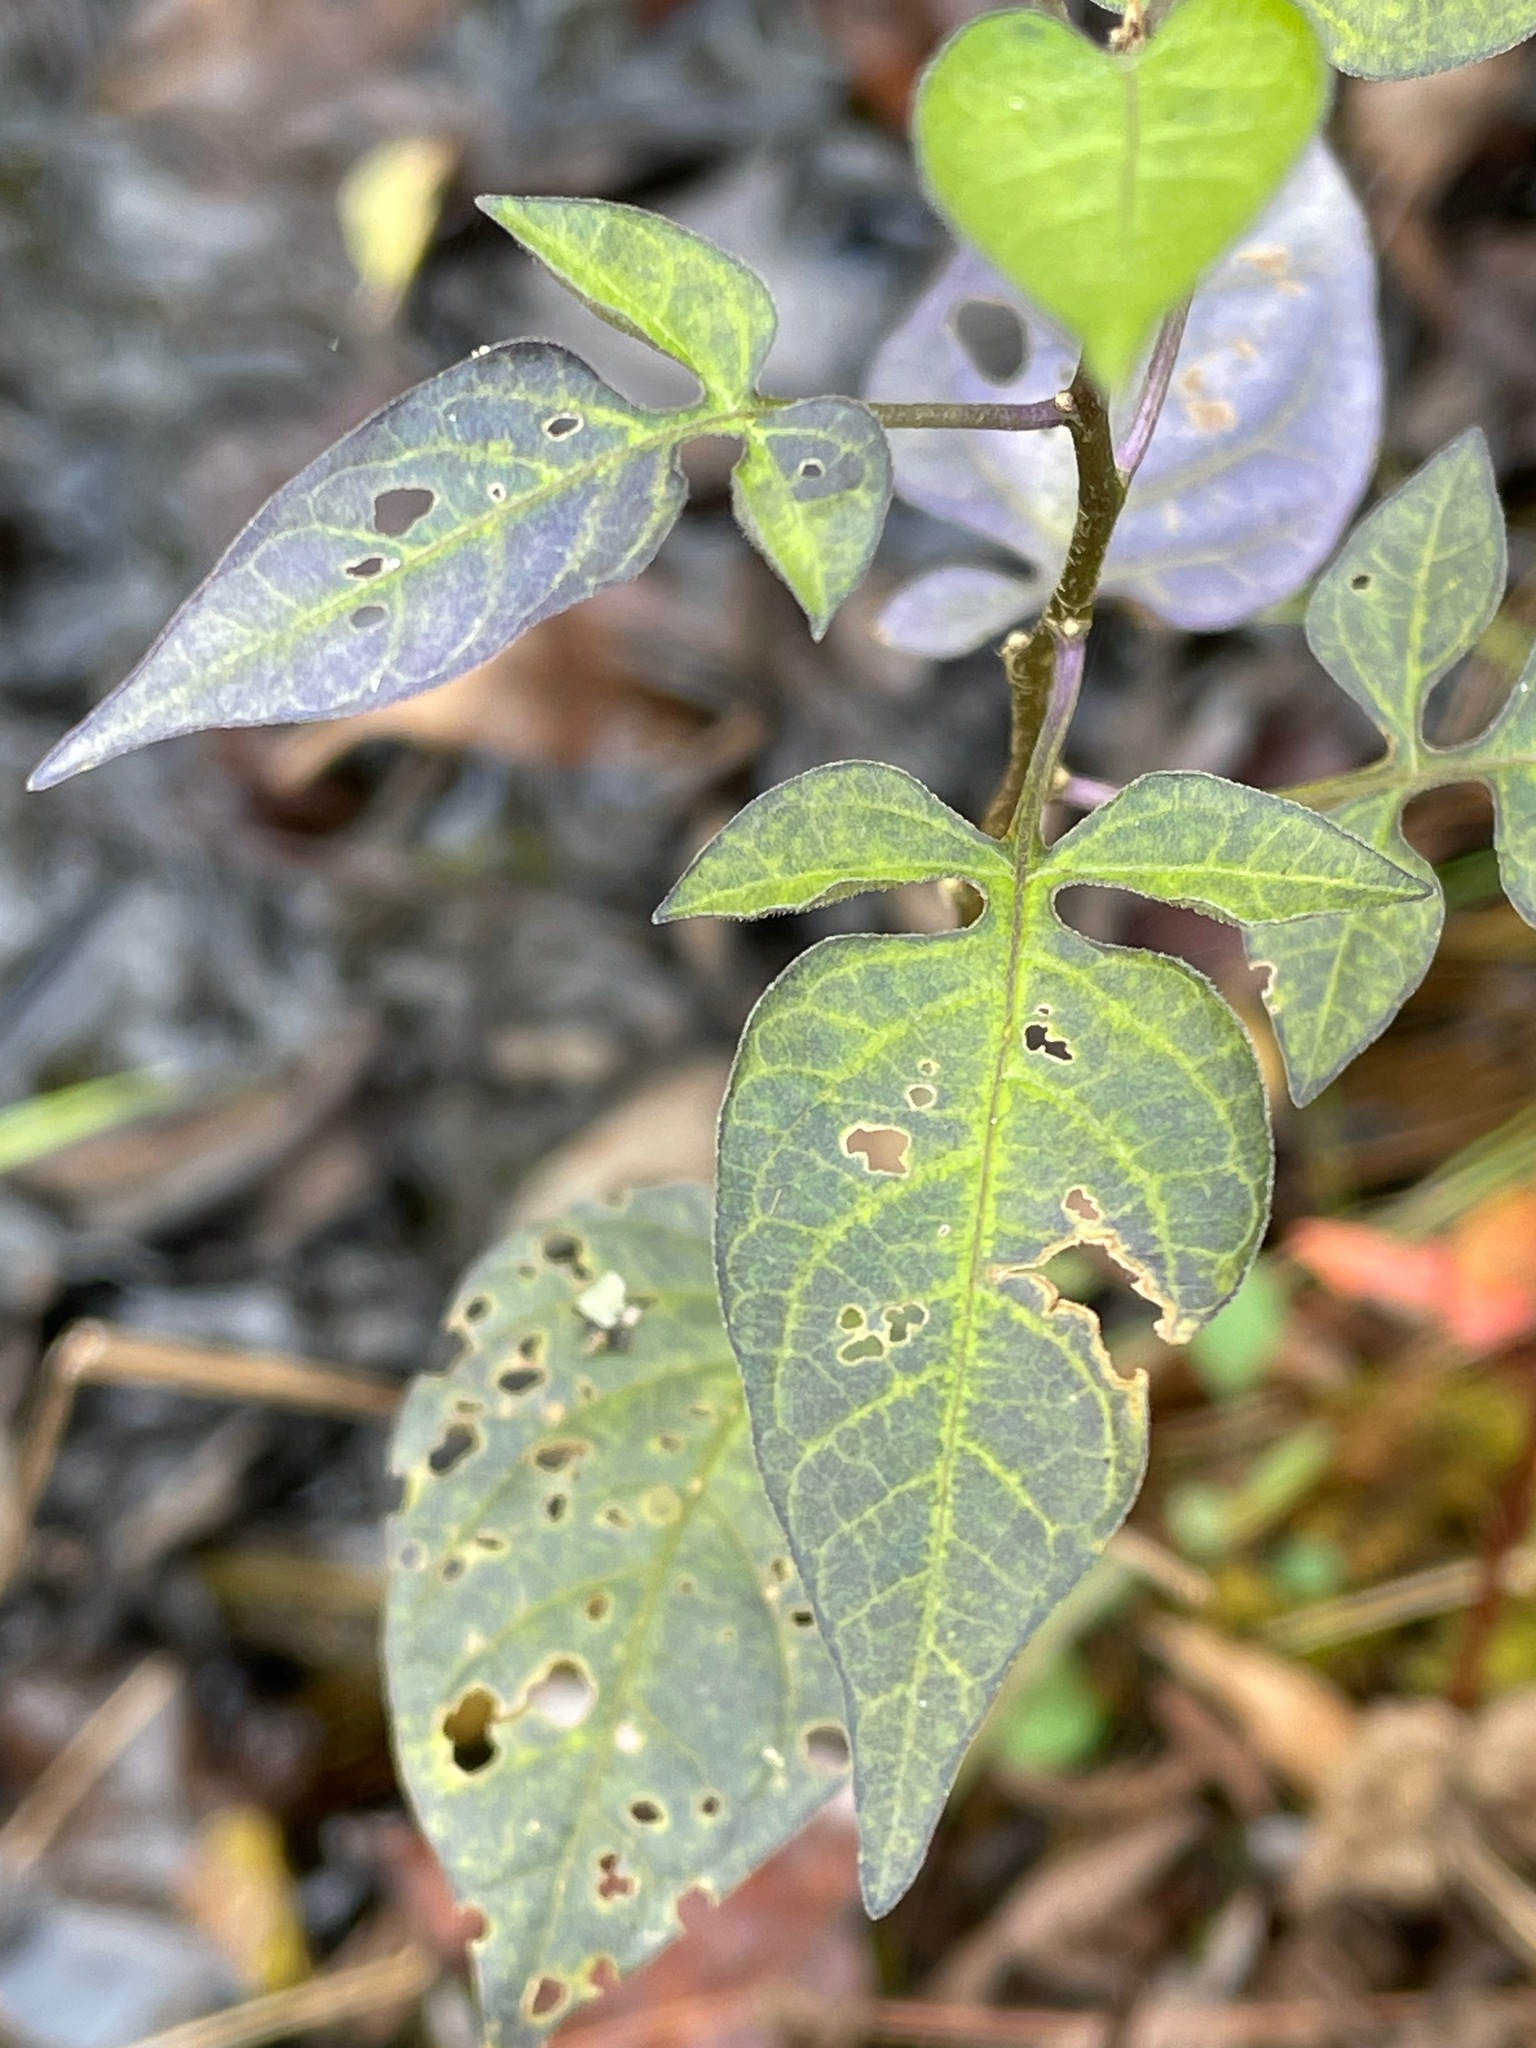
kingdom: Plantae
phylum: Tracheophyta
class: Magnoliopsida
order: Solanales
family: Solanaceae
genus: Solanum
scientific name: Solanum dulcamara
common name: Climbing nightshade
